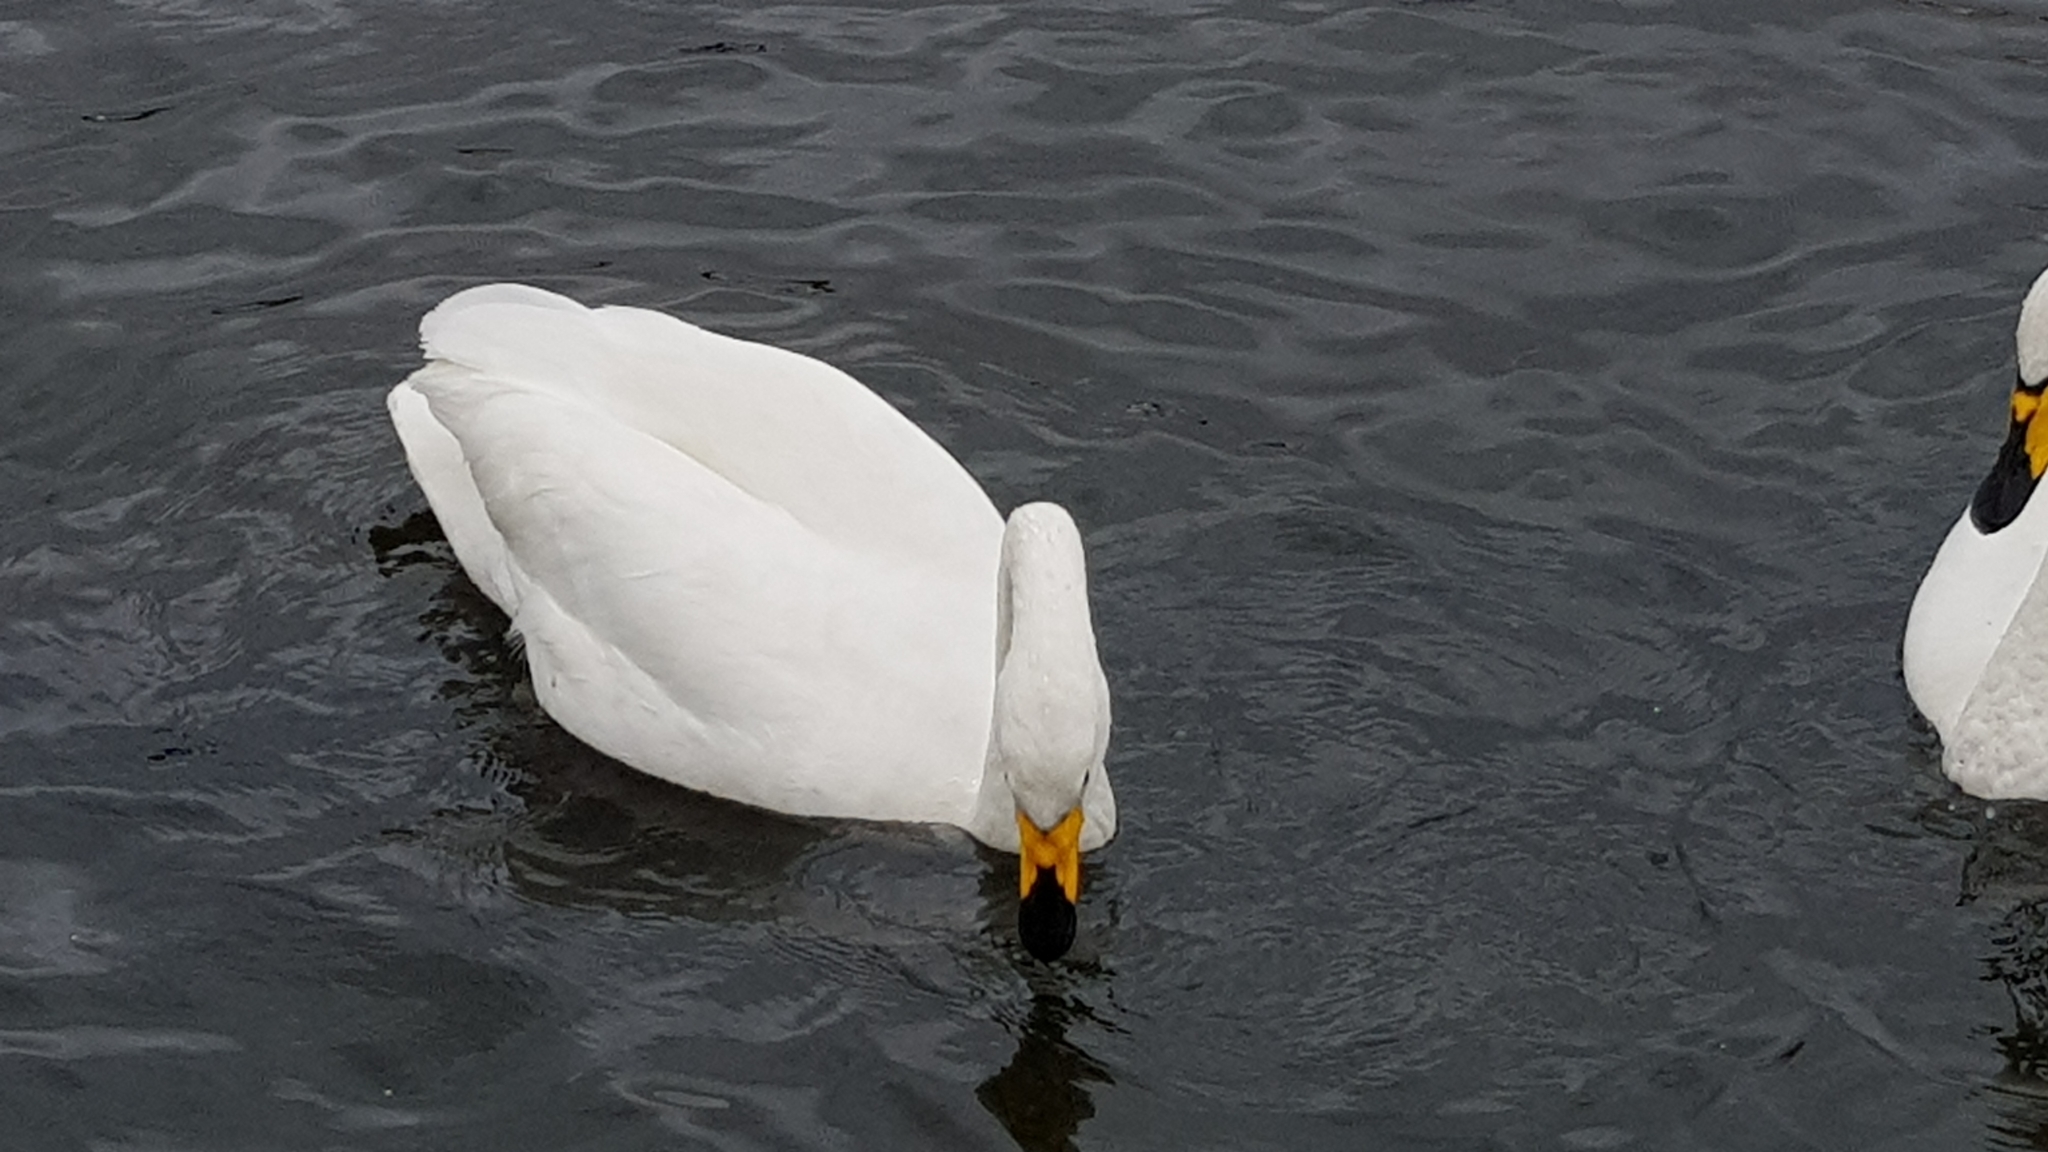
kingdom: Animalia
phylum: Chordata
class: Aves
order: Anseriformes
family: Anatidae
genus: Cygnus
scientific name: Cygnus cygnus
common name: Whooper swan
